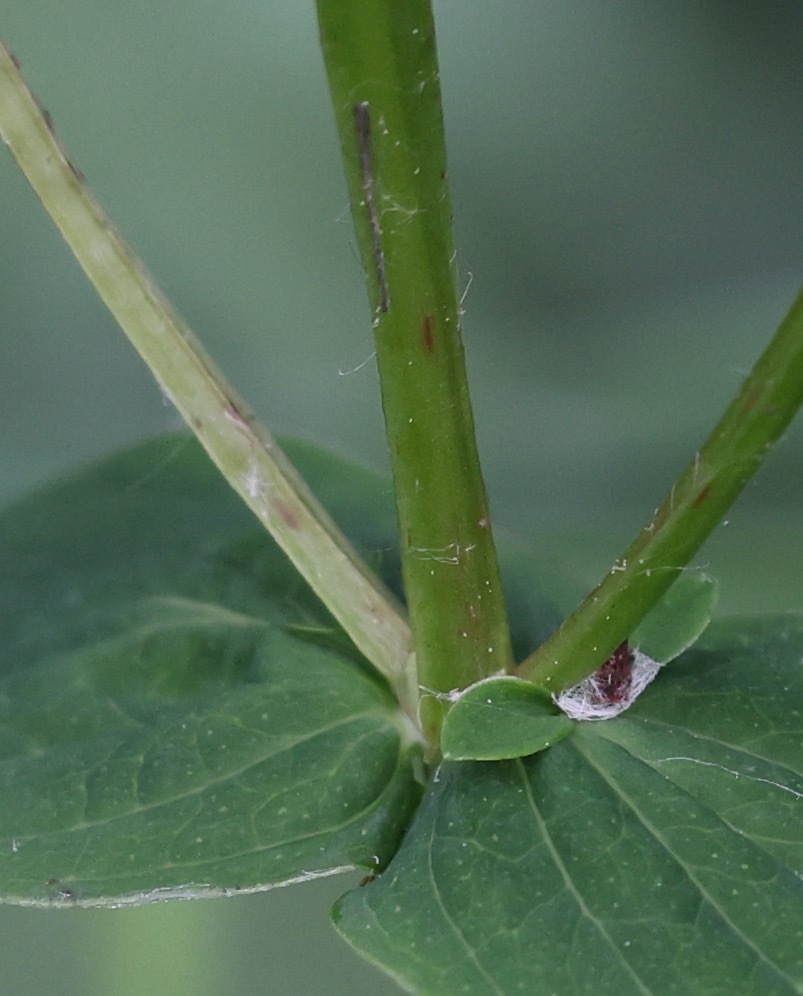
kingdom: Plantae
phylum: Tracheophyta
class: Magnoliopsida
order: Malpighiales
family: Hypericaceae
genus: Hypericum
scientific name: Hypericum tetrapterum
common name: Square-stalked st. john's-wort
